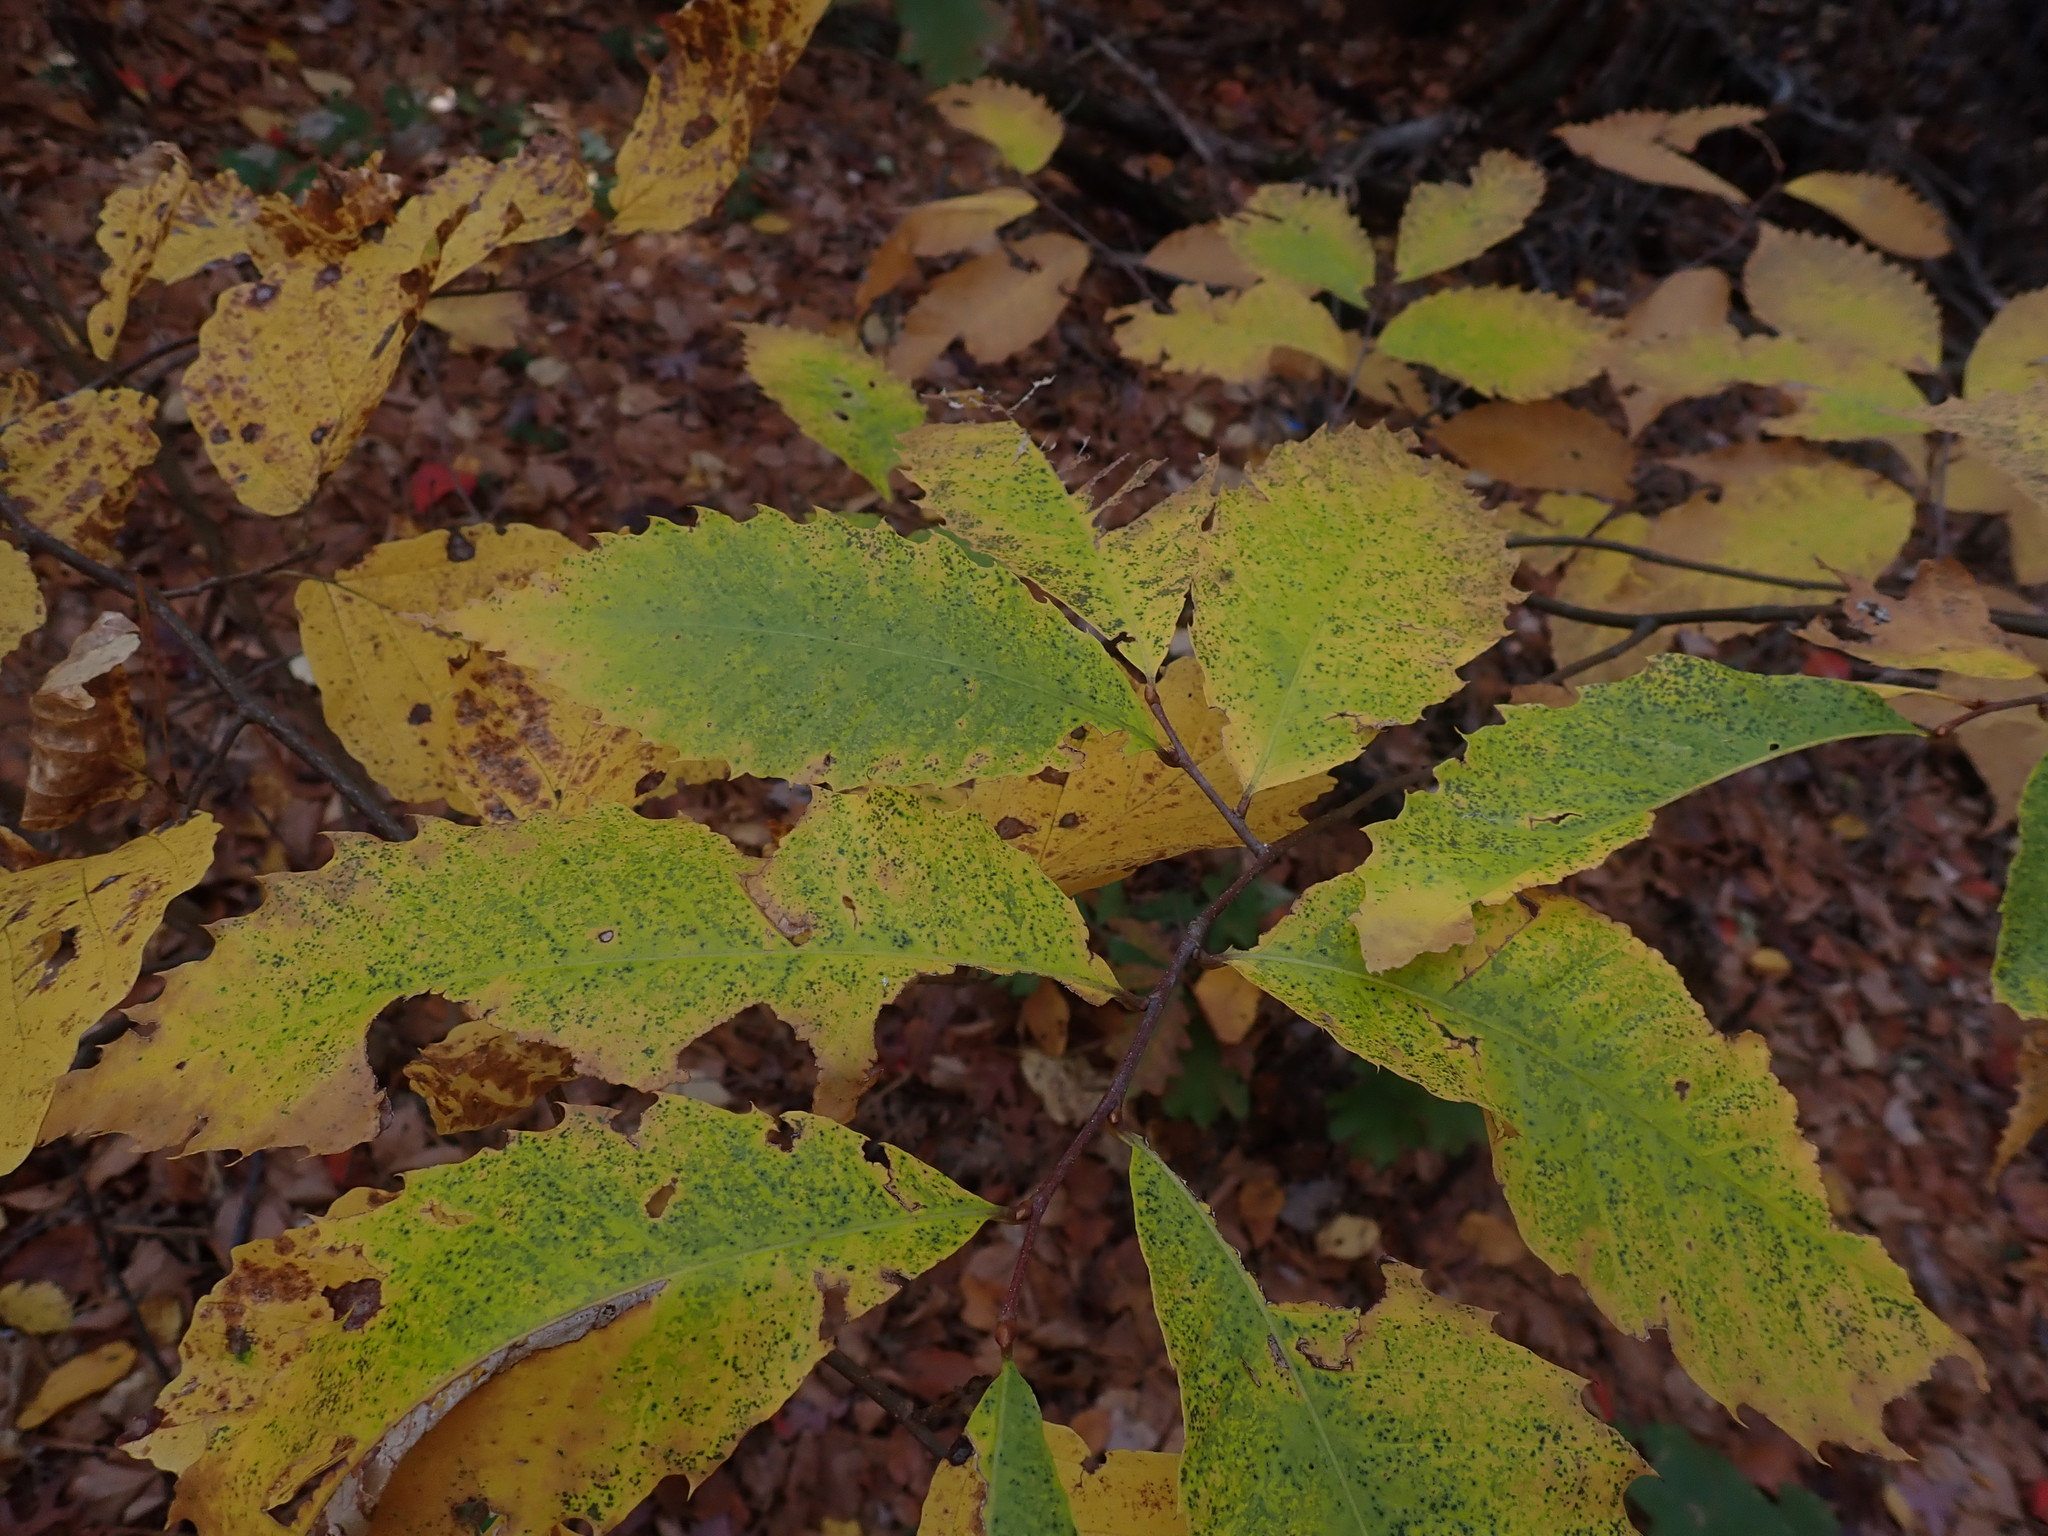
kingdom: Plantae
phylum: Tracheophyta
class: Magnoliopsida
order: Fagales
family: Fagaceae
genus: Castanea
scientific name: Castanea dentata
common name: American chestnut
